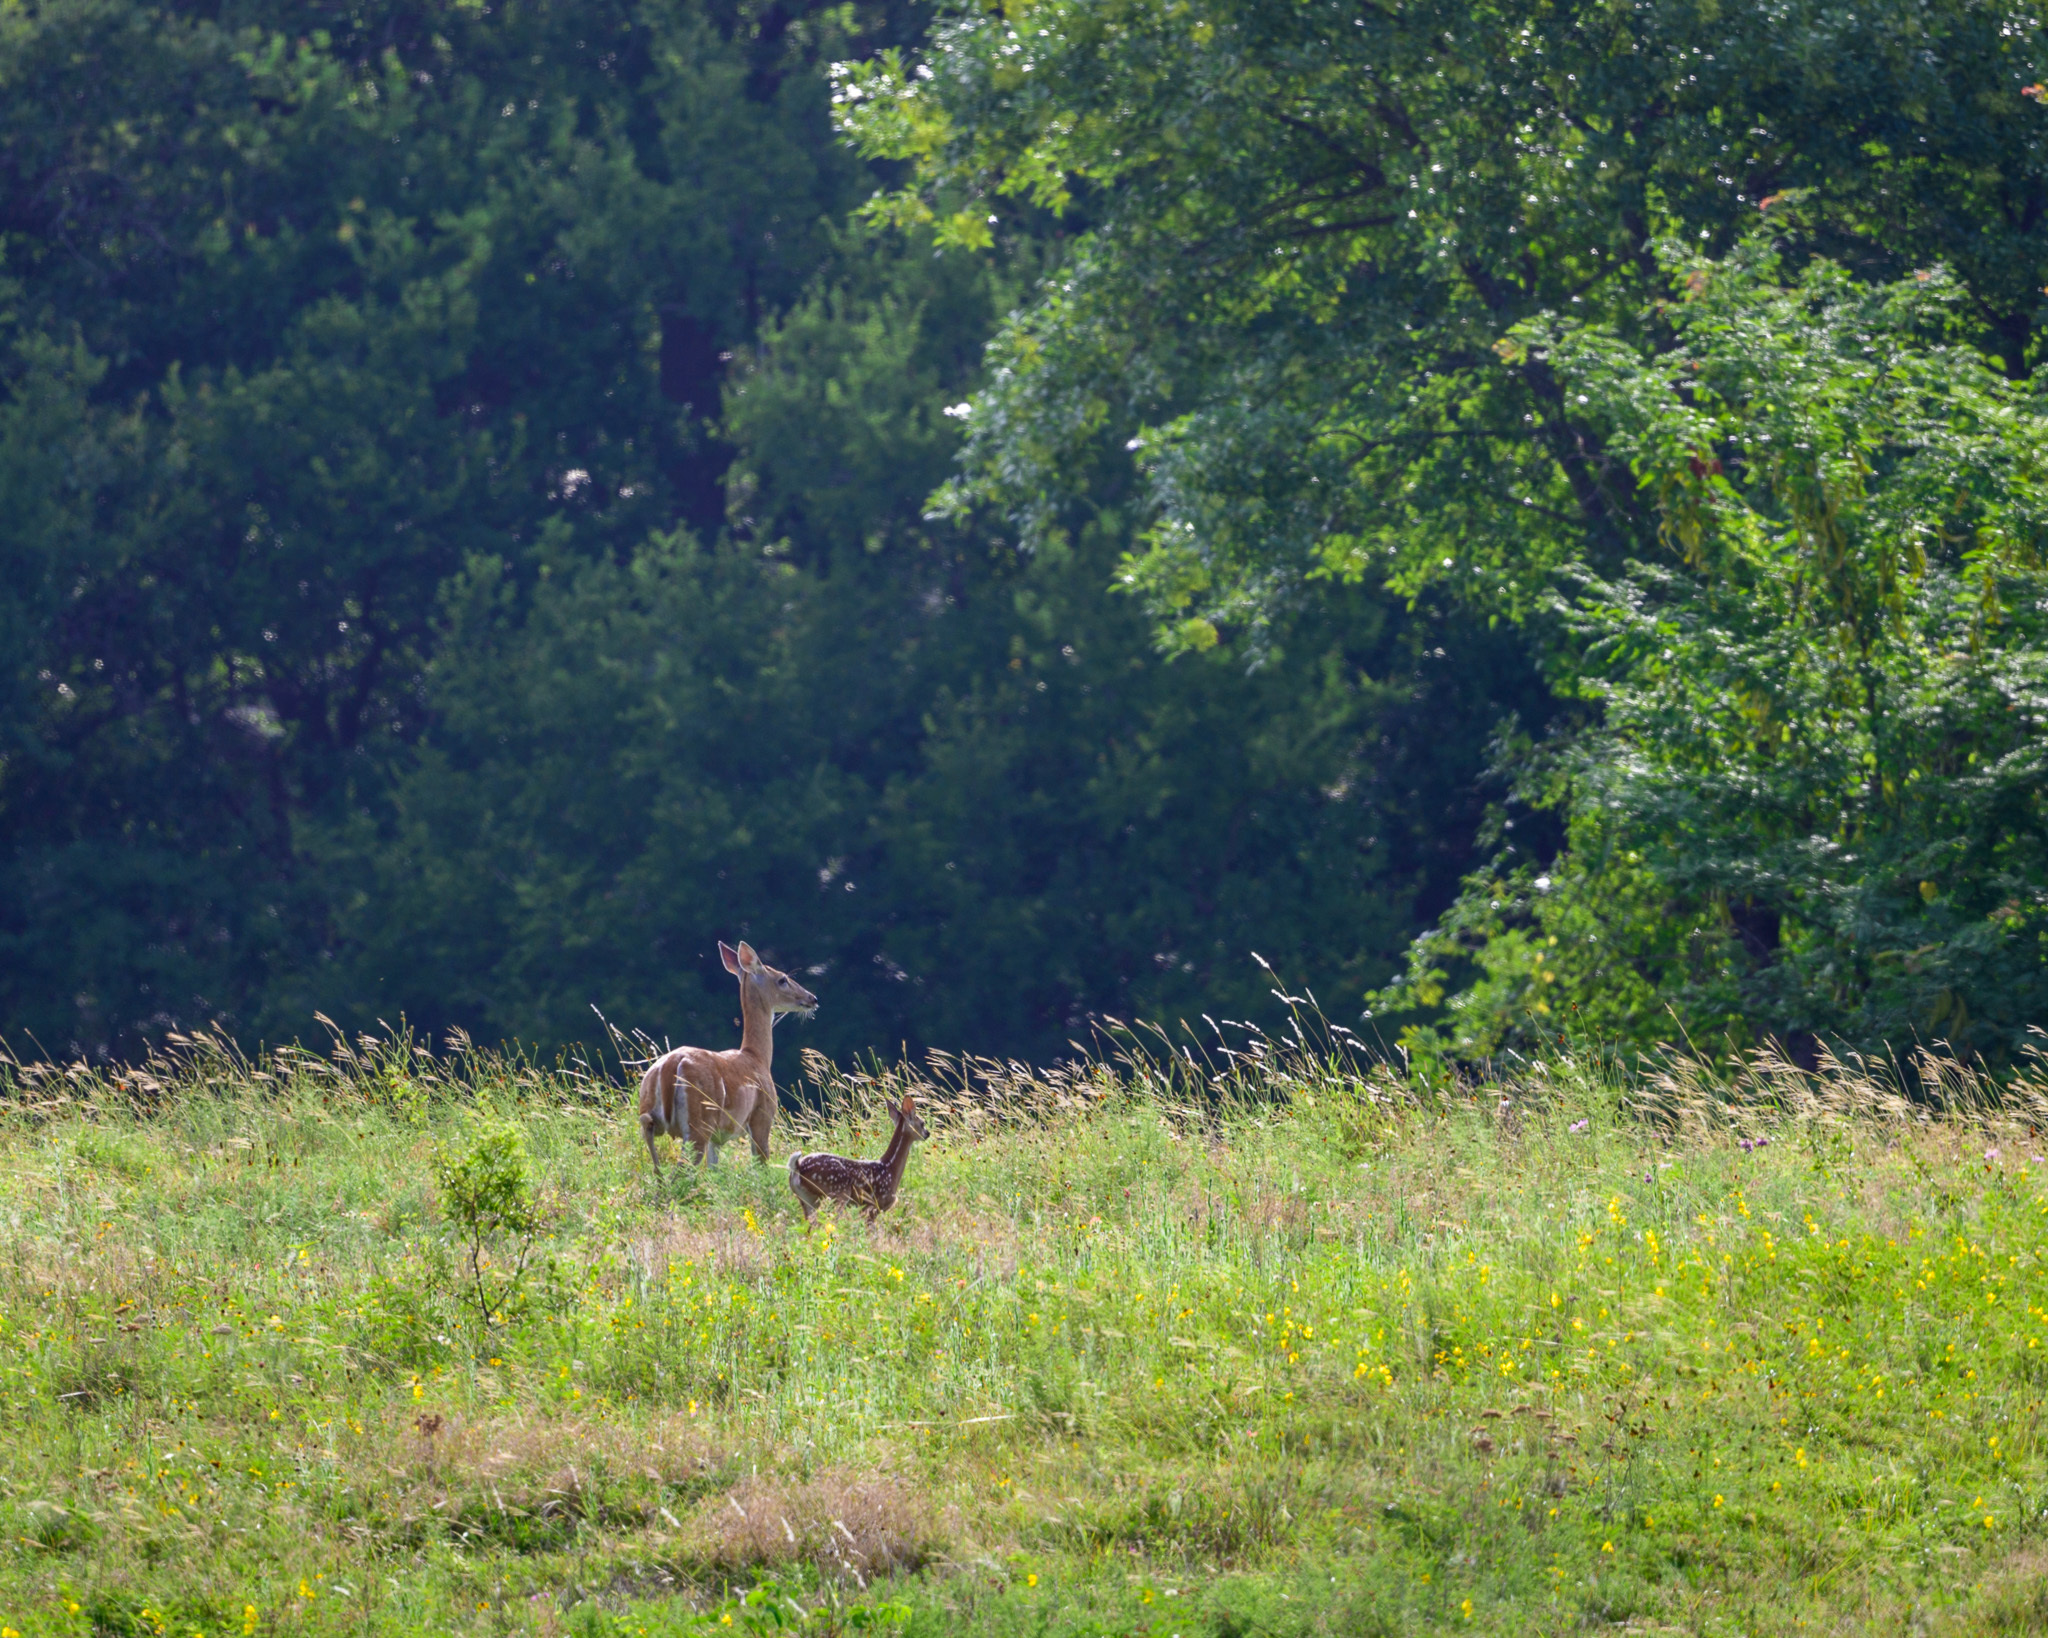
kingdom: Animalia
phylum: Chordata
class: Mammalia
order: Artiodactyla
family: Cervidae
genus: Odocoileus
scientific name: Odocoileus virginianus
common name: White-tailed deer
